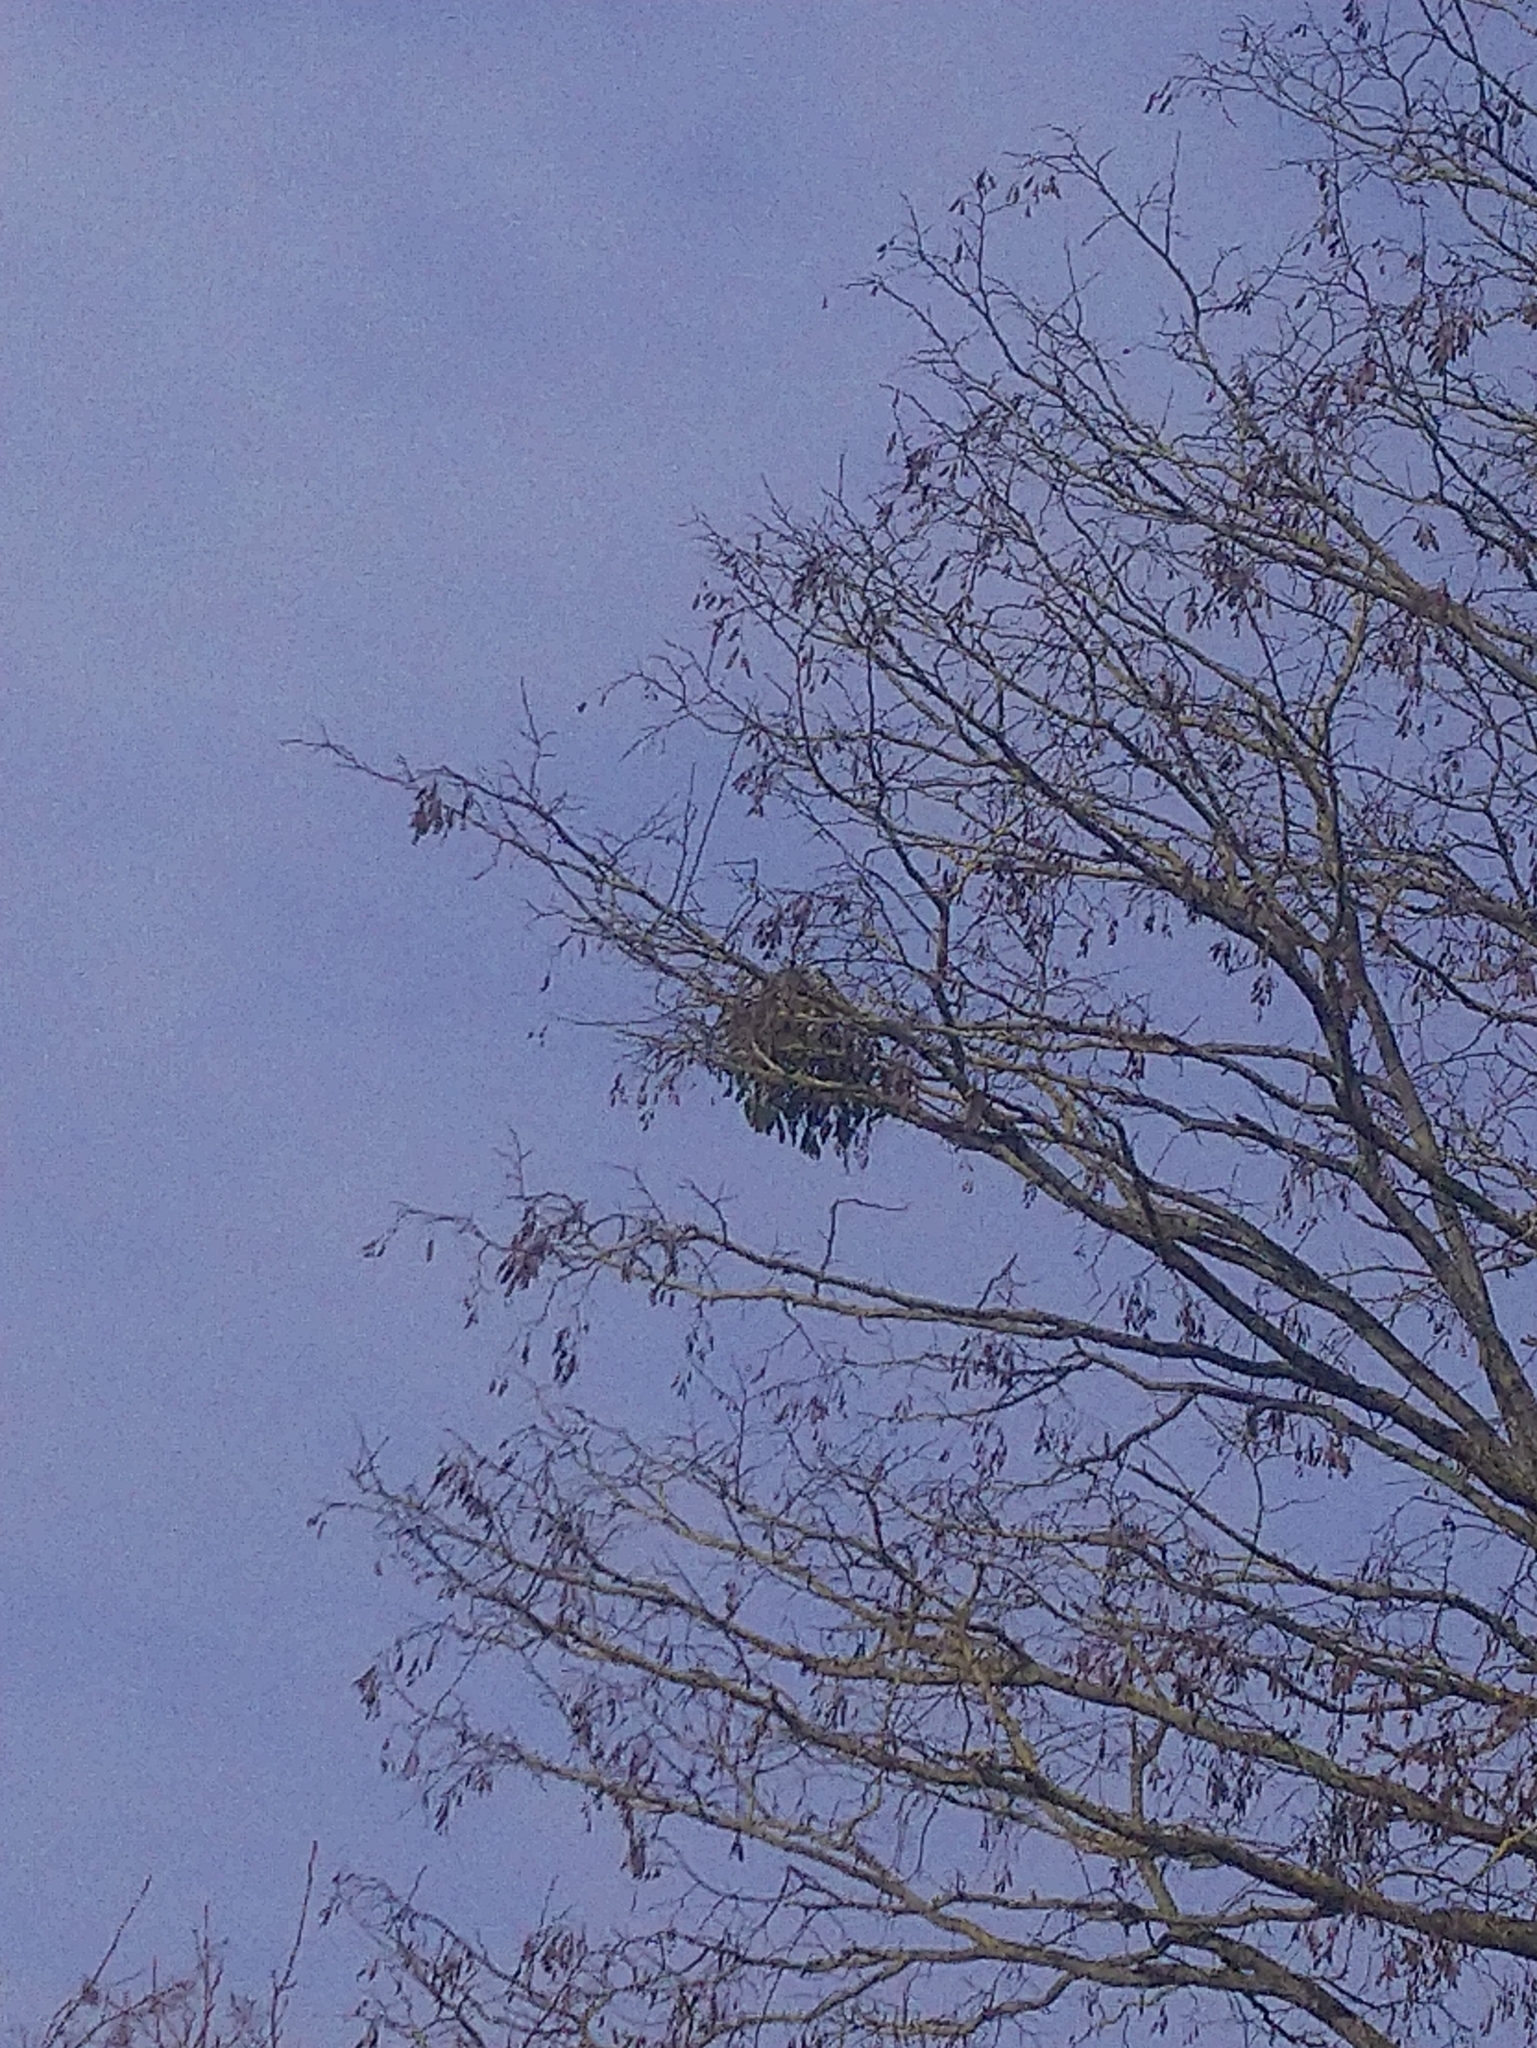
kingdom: Plantae
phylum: Tracheophyta
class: Magnoliopsida
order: Santalales
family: Viscaceae
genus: Viscum
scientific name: Viscum album
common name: Mistletoe
